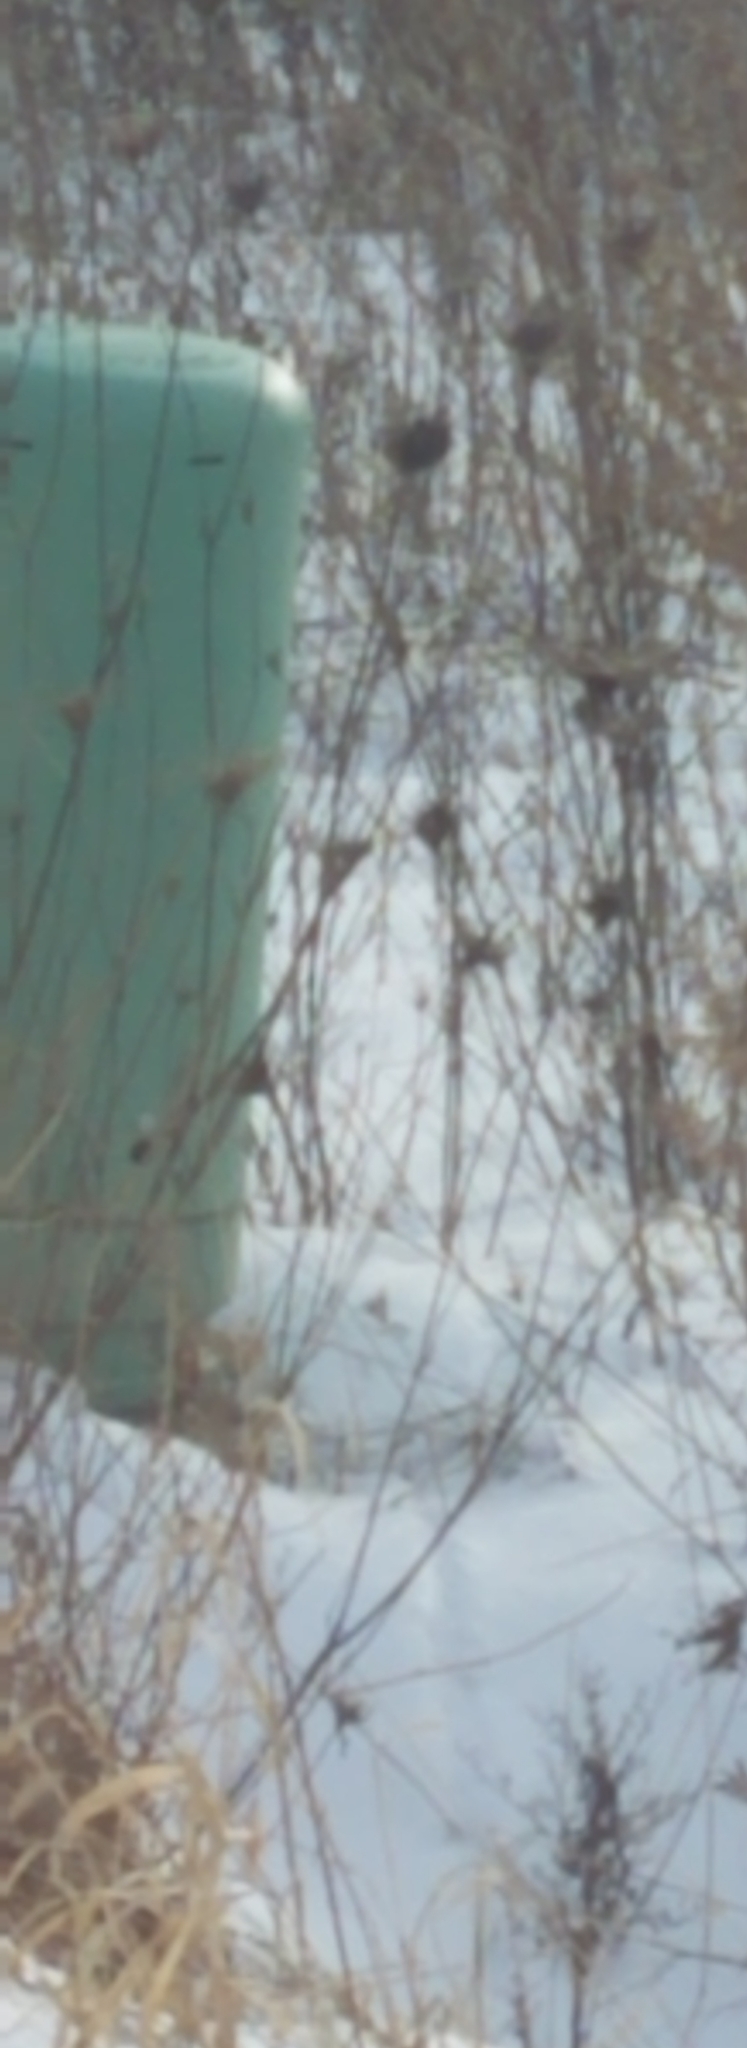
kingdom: Plantae
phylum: Tracheophyta
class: Magnoliopsida
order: Apiales
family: Apiaceae
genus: Daucus
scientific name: Daucus carota
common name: Wild carrot
